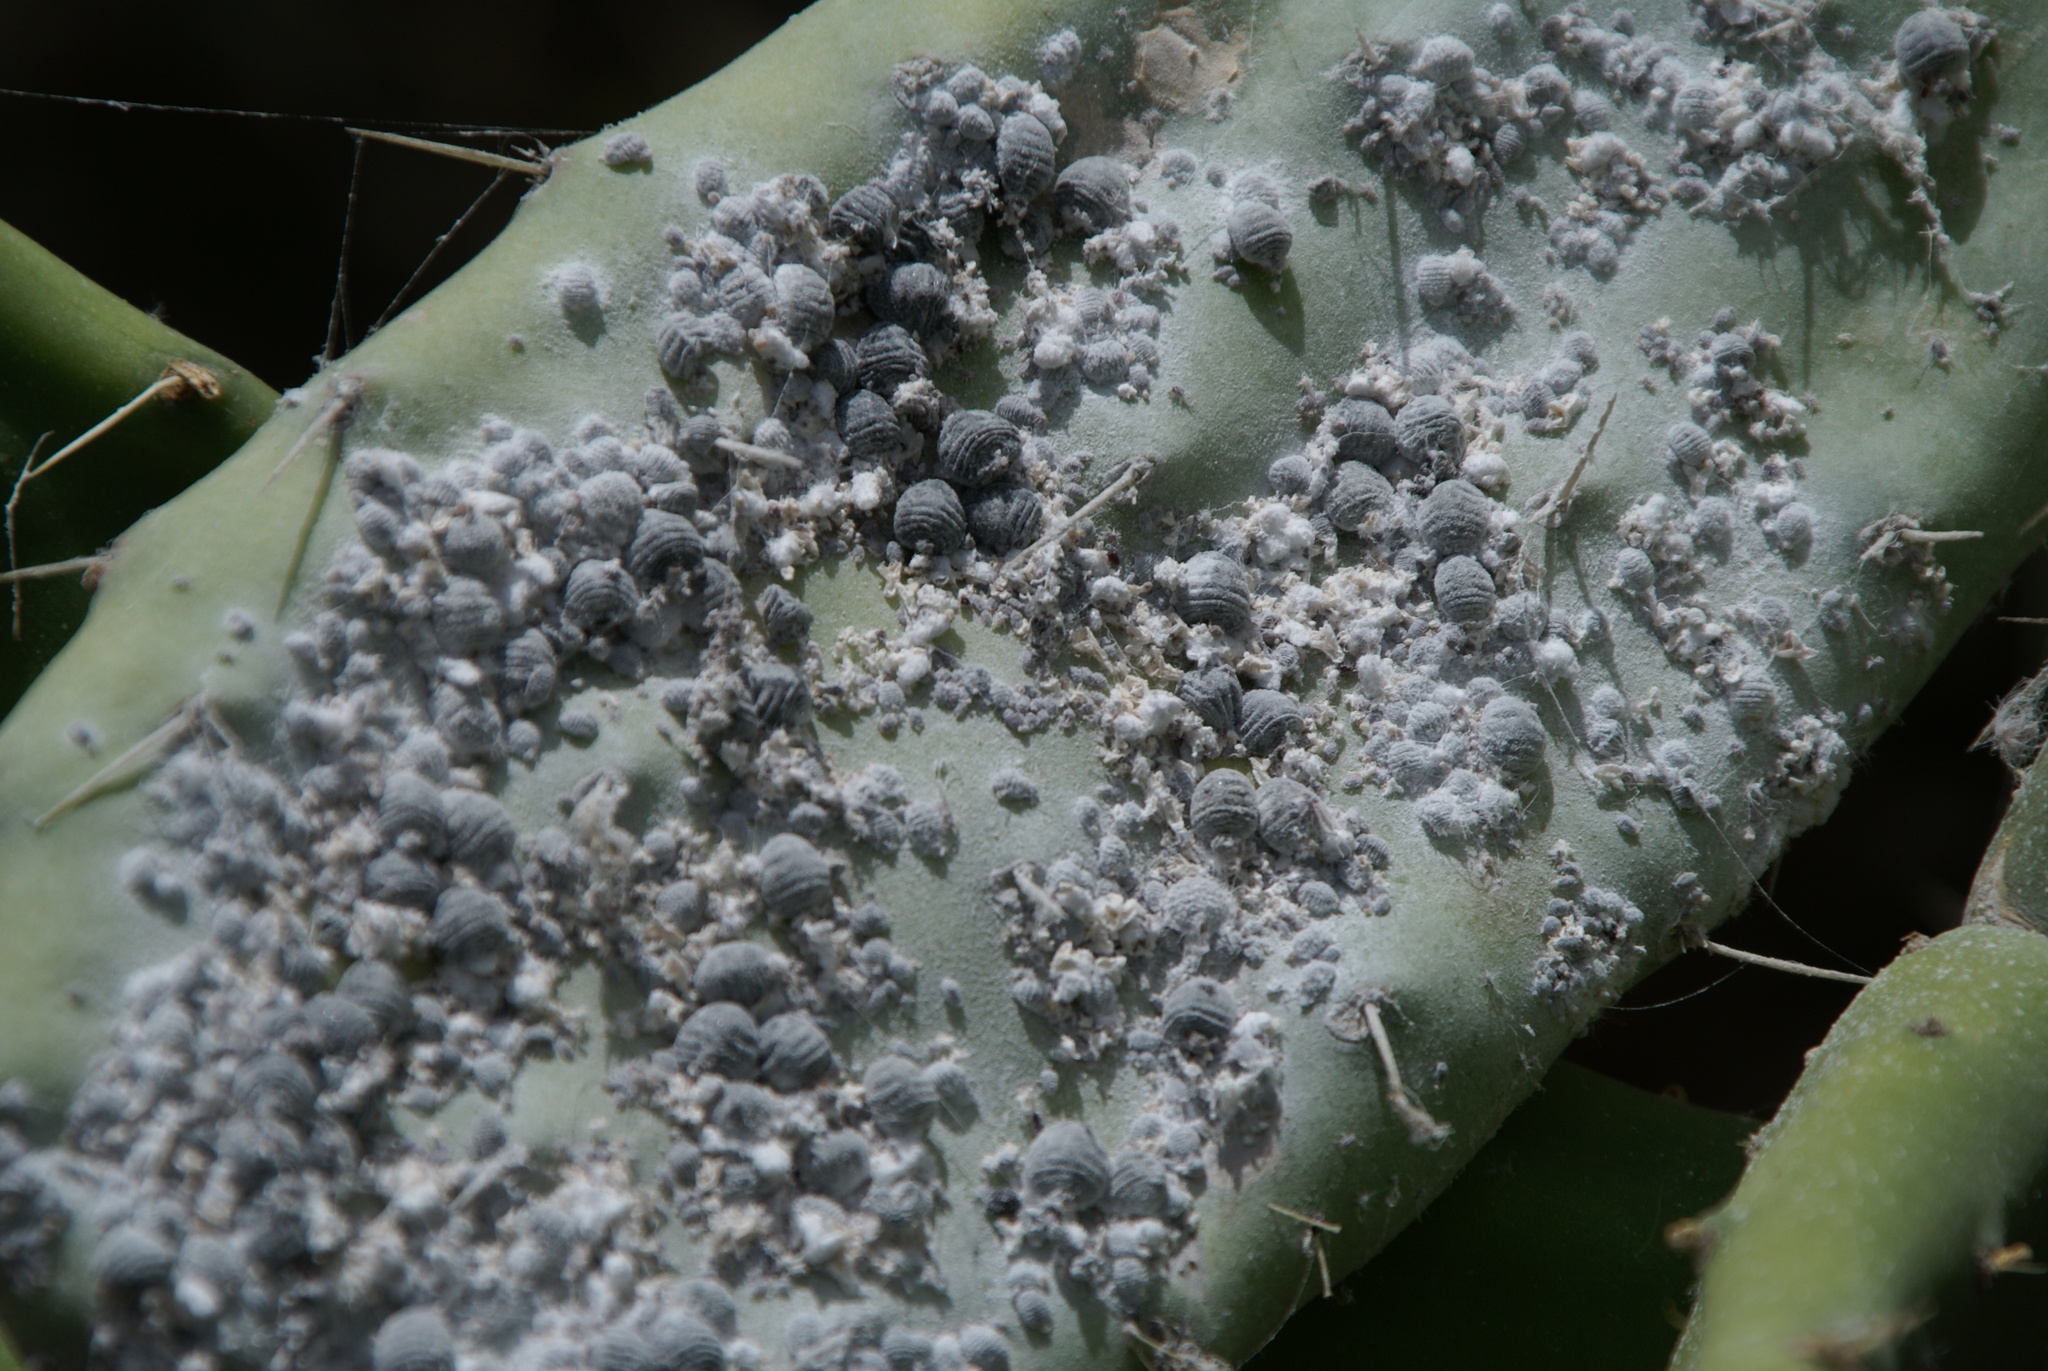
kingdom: Animalia
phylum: Arthropoda
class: Insecta
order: Hemiptera
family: Dactylopiidae
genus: Dactylopius
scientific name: Dactylopius coccus
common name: Cochineal
